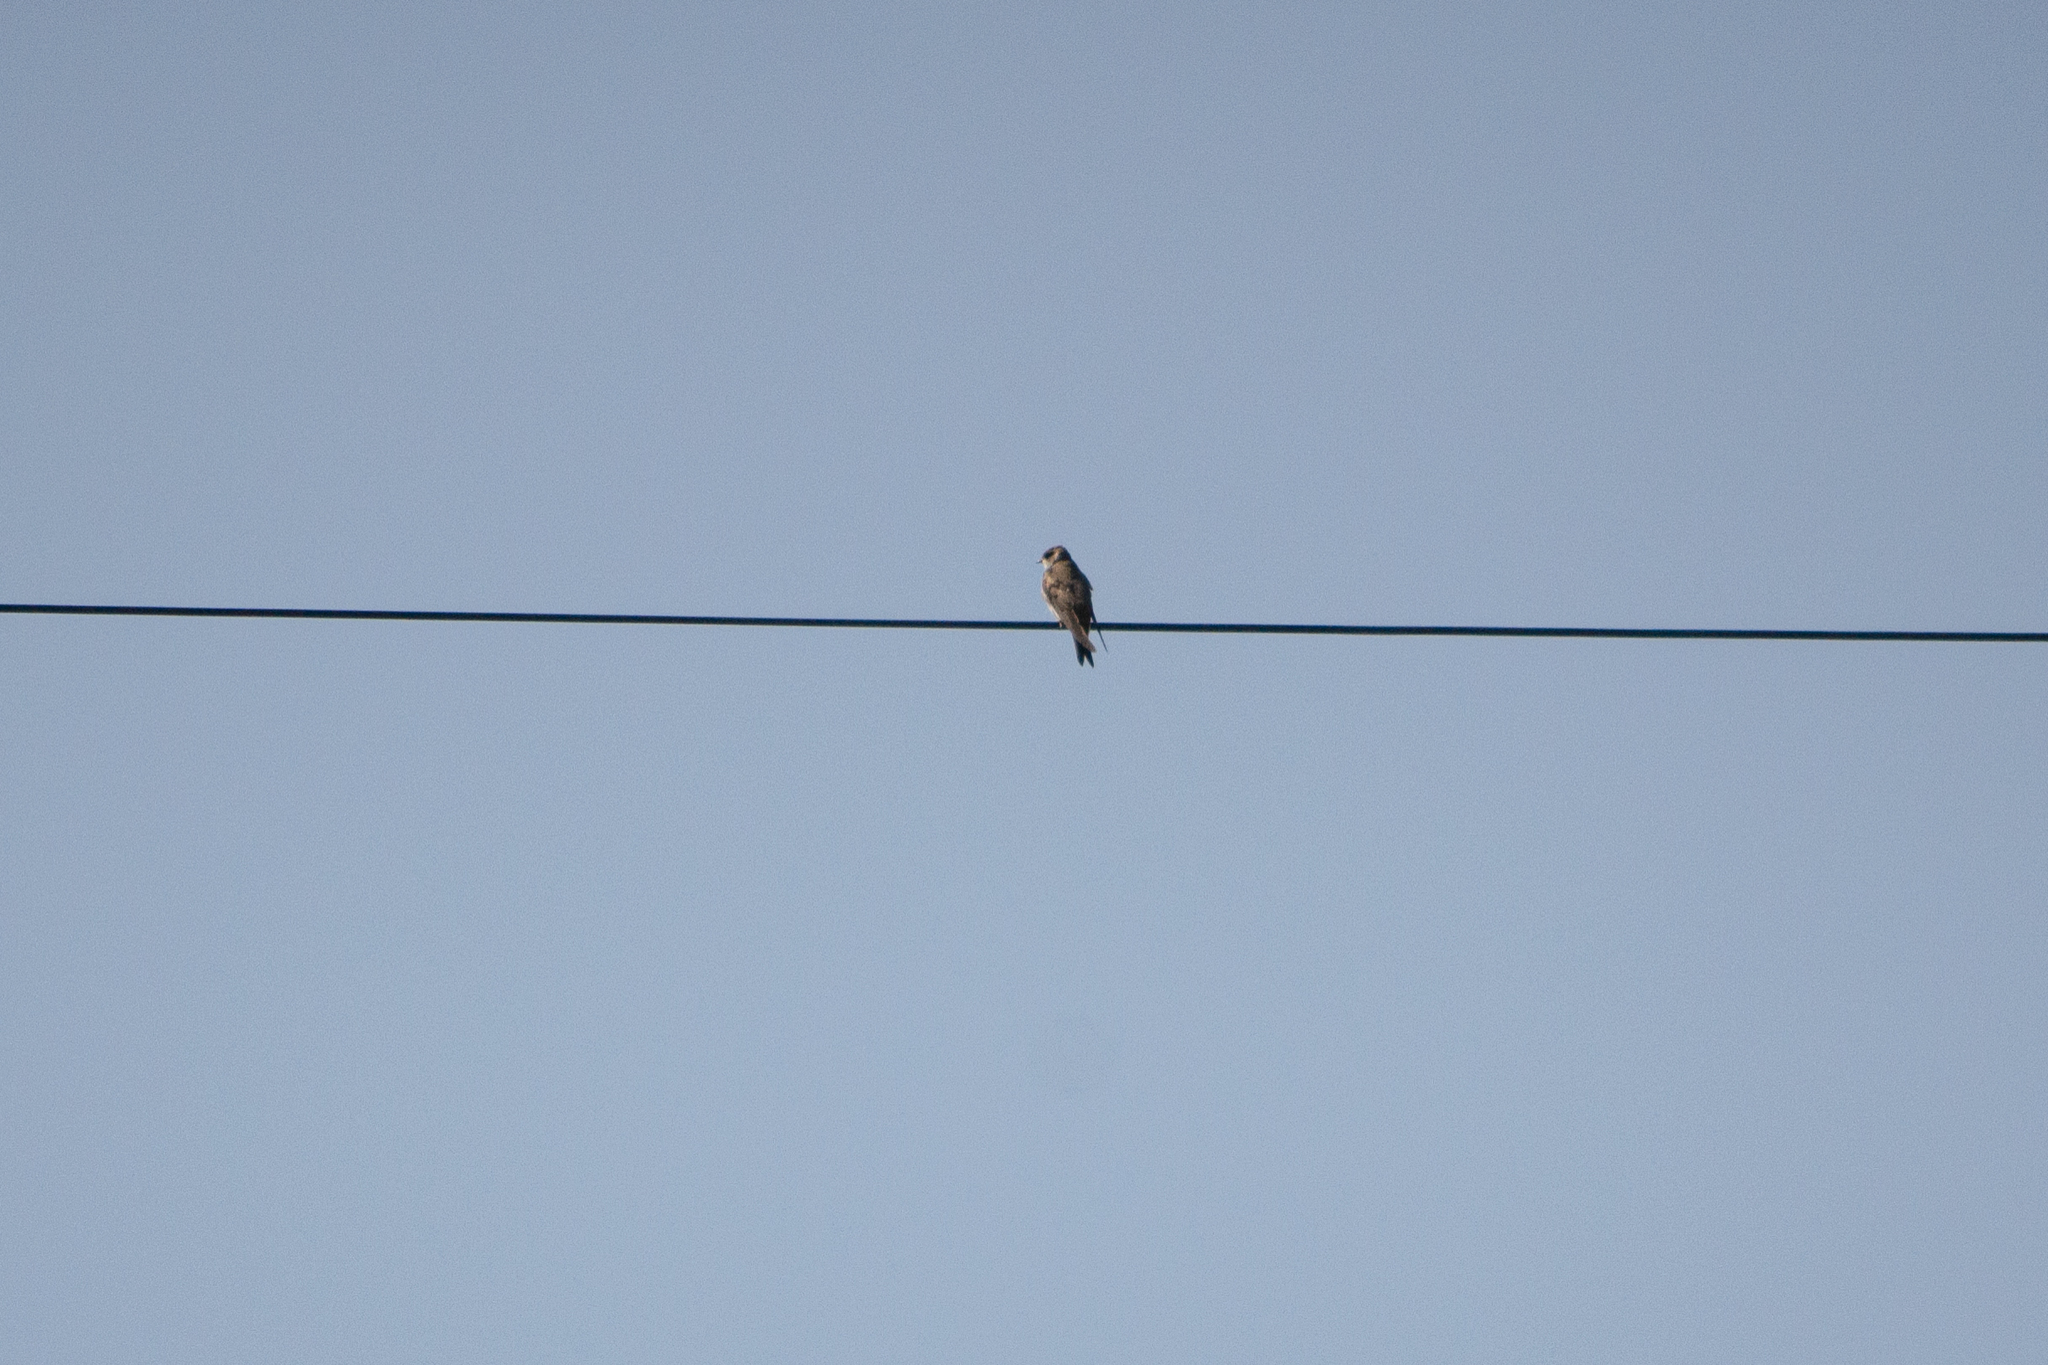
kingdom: Animalia
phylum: Chordata
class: Aves
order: Passeriformes
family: Hirundinidae
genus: Riparia
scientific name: Riparia riparia
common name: Sand martin
